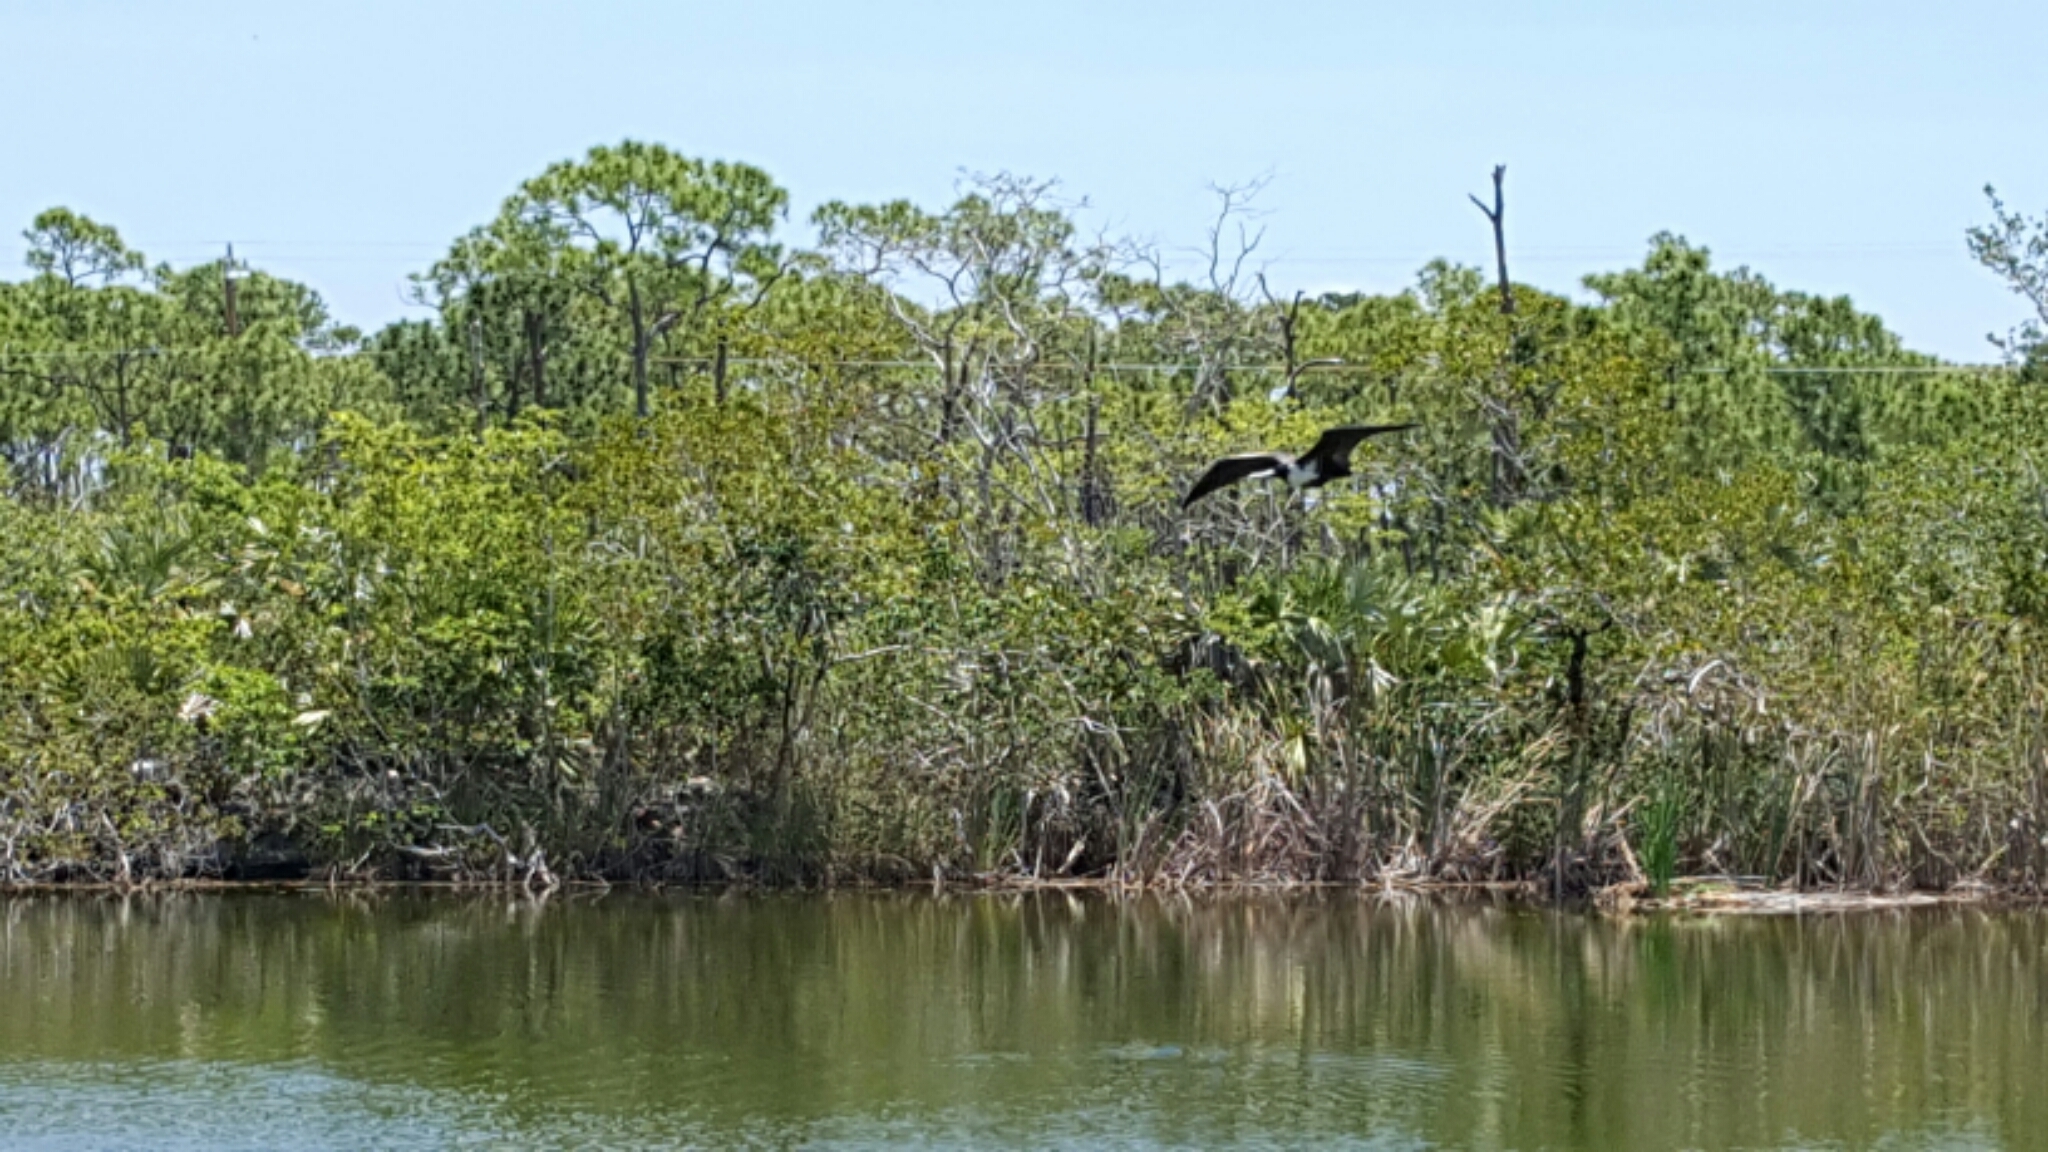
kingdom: Animalia
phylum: Chordata
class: Aves
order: Suliformes
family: Fregatidae
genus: Fregata
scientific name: Fregata magnificens
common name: Magnificent frigatebird
